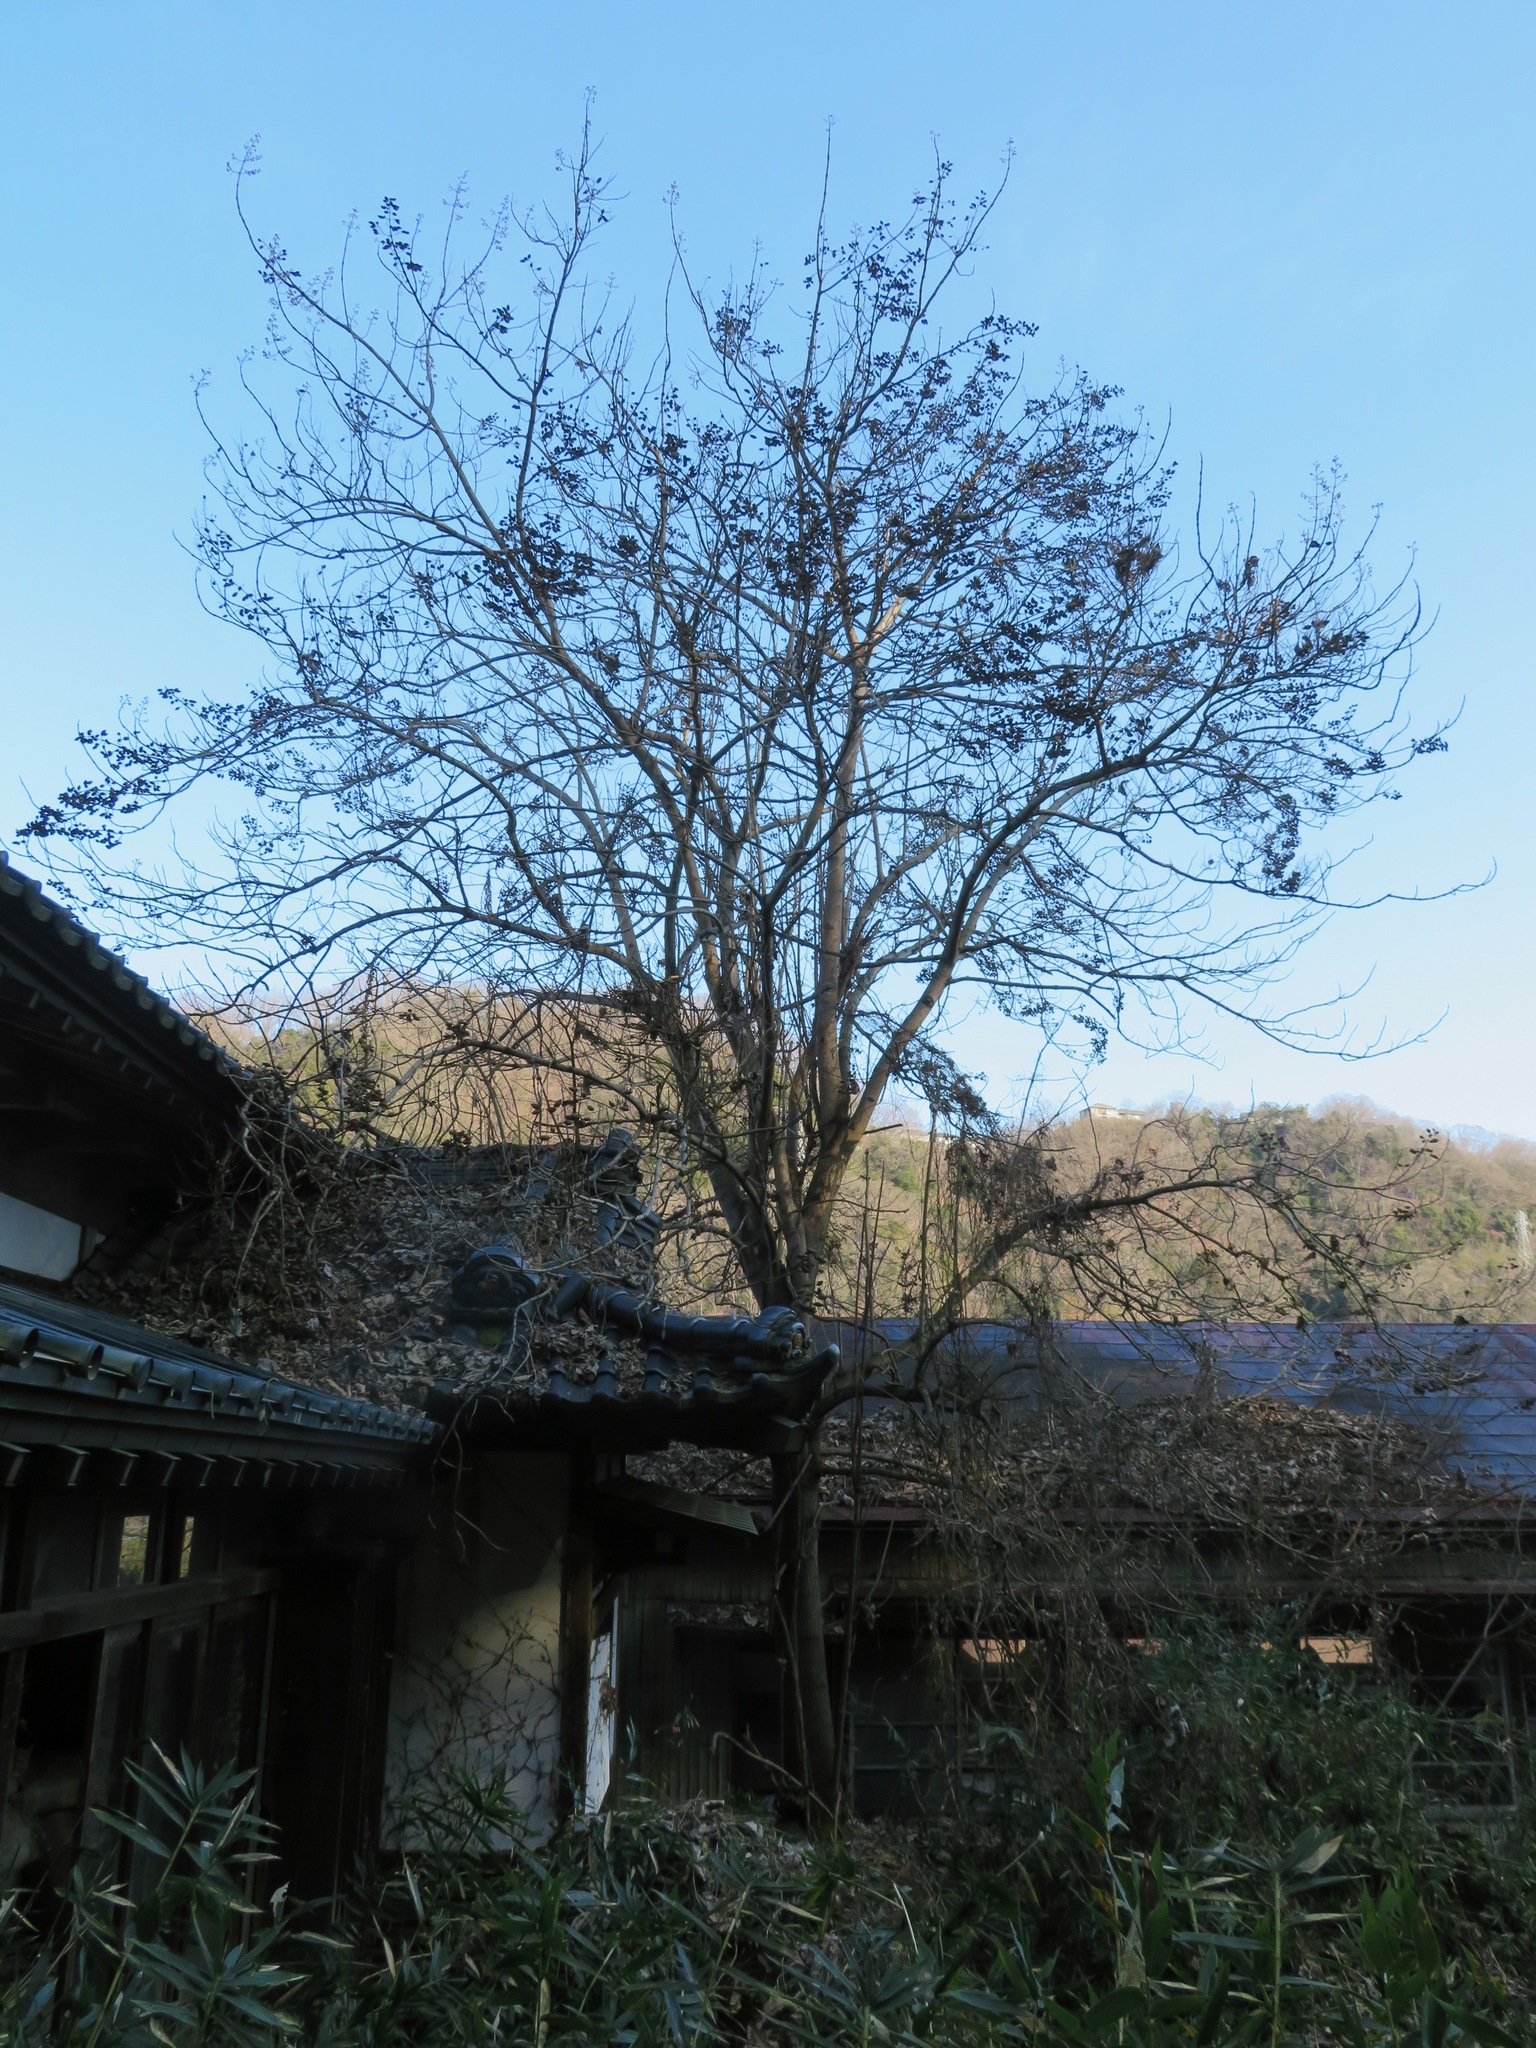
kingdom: Plantae
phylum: Tracheophyta
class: Magnoliopsida
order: Lamiales
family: Paulowniaceae
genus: Paulownia
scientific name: Paulownia tomentosa
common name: Foxglove-tree
